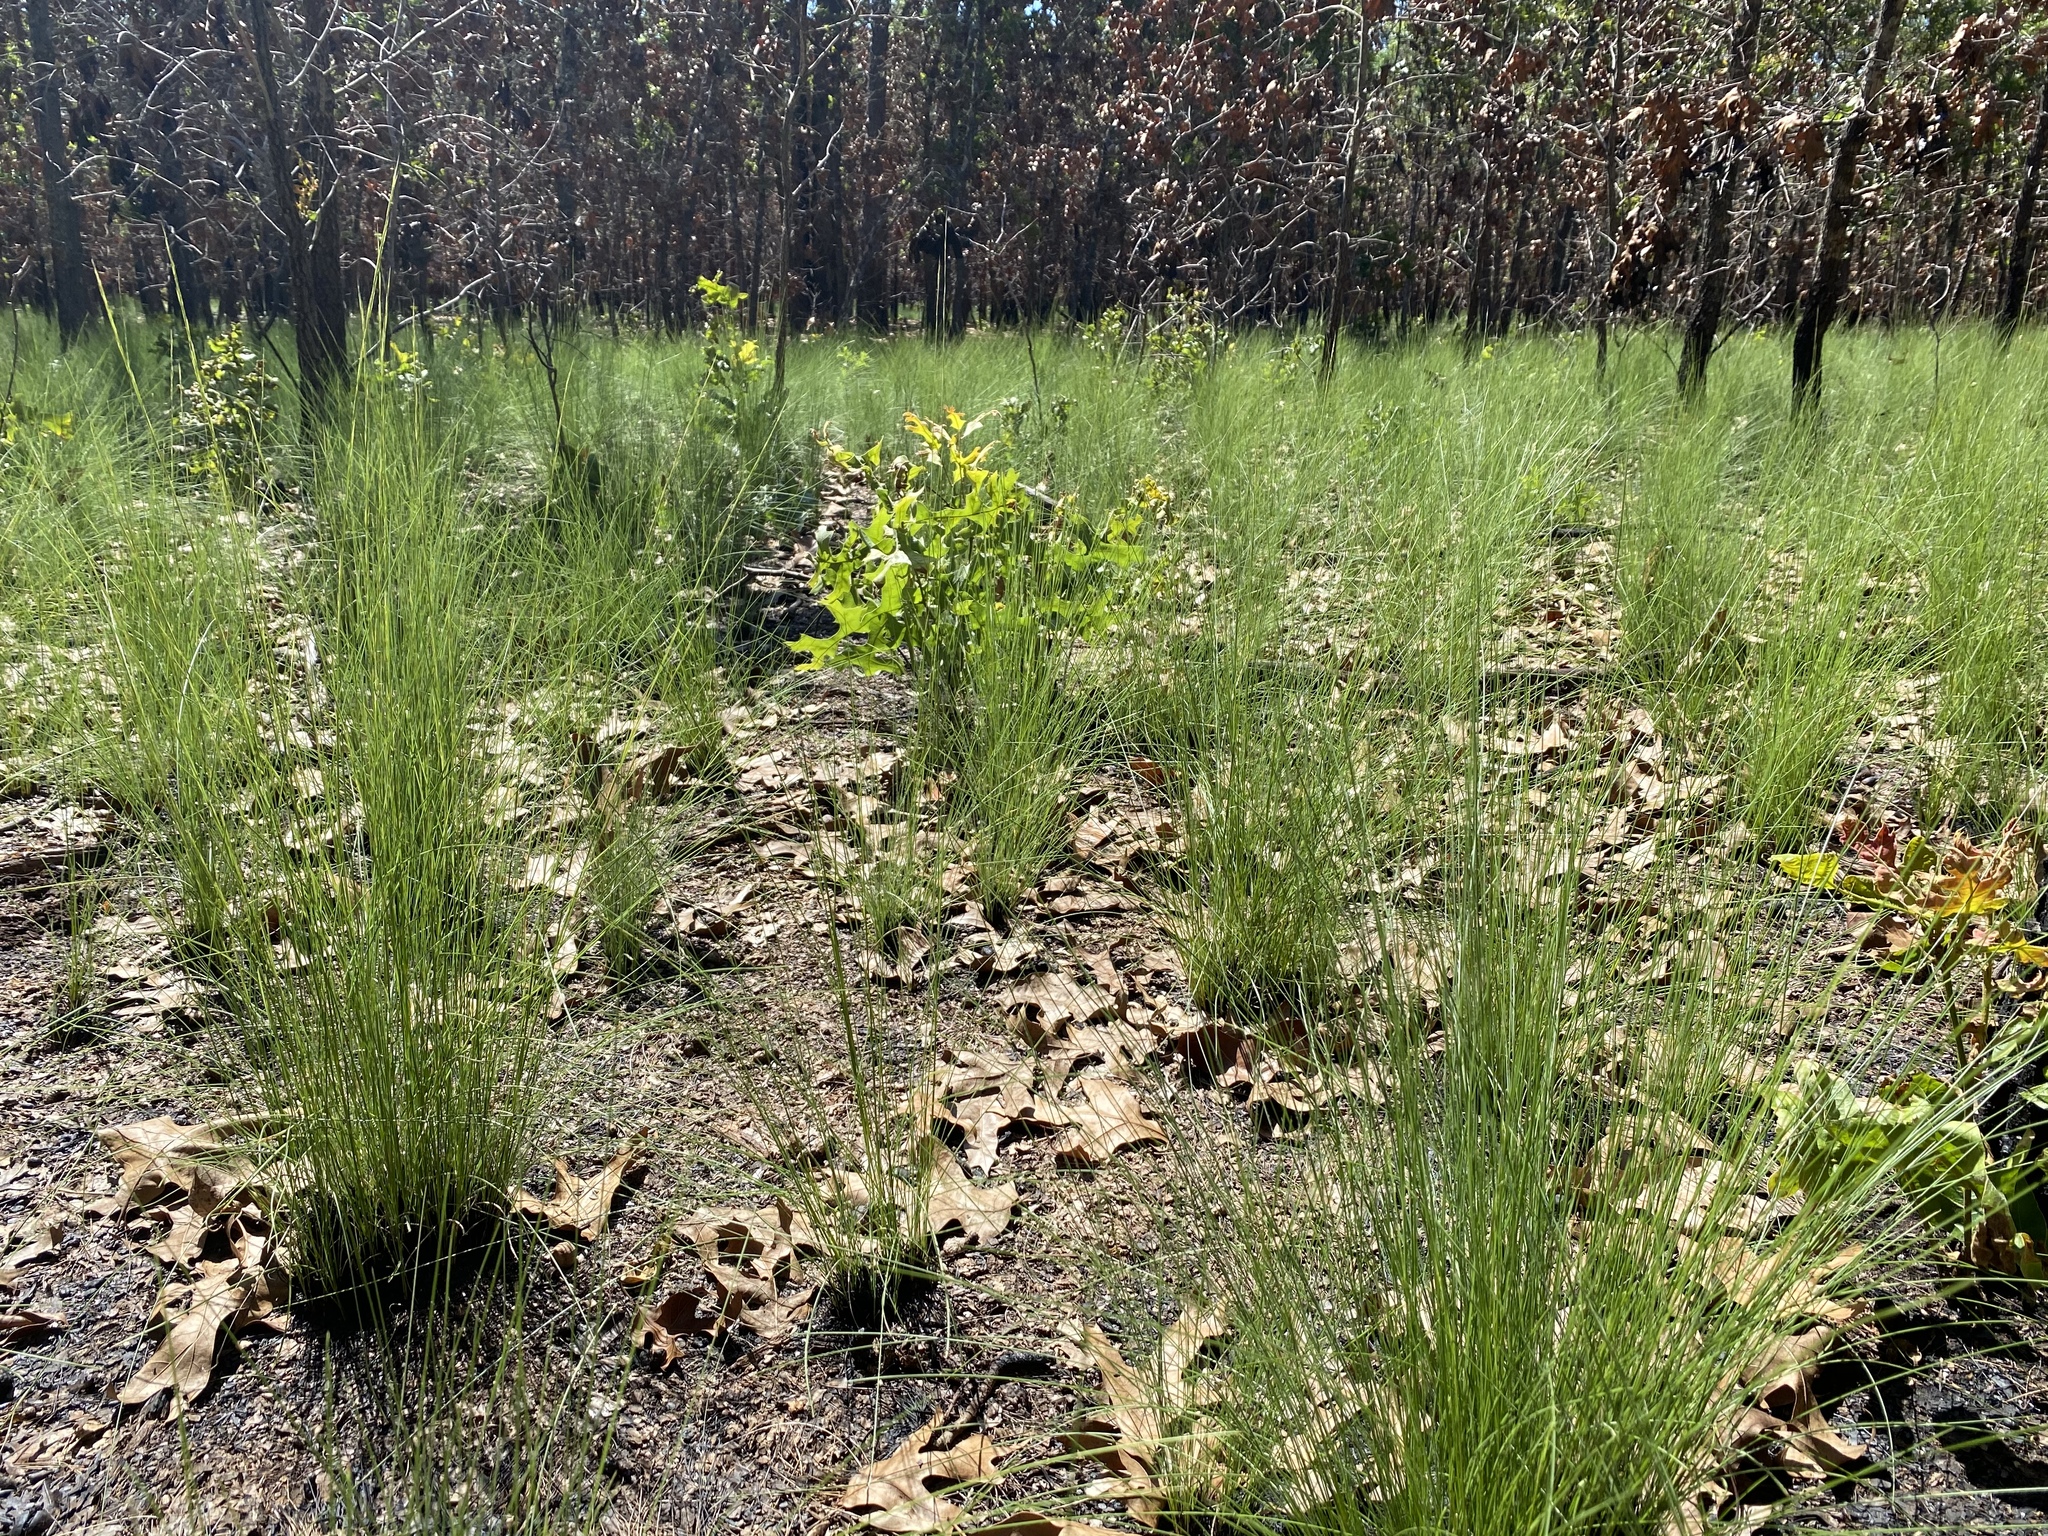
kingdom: Plantae
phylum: Tracheophyta
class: Liliopsida
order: Poales
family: Poaceae
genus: Aristida
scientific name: Aristida stricta
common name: Pineland three-awn
